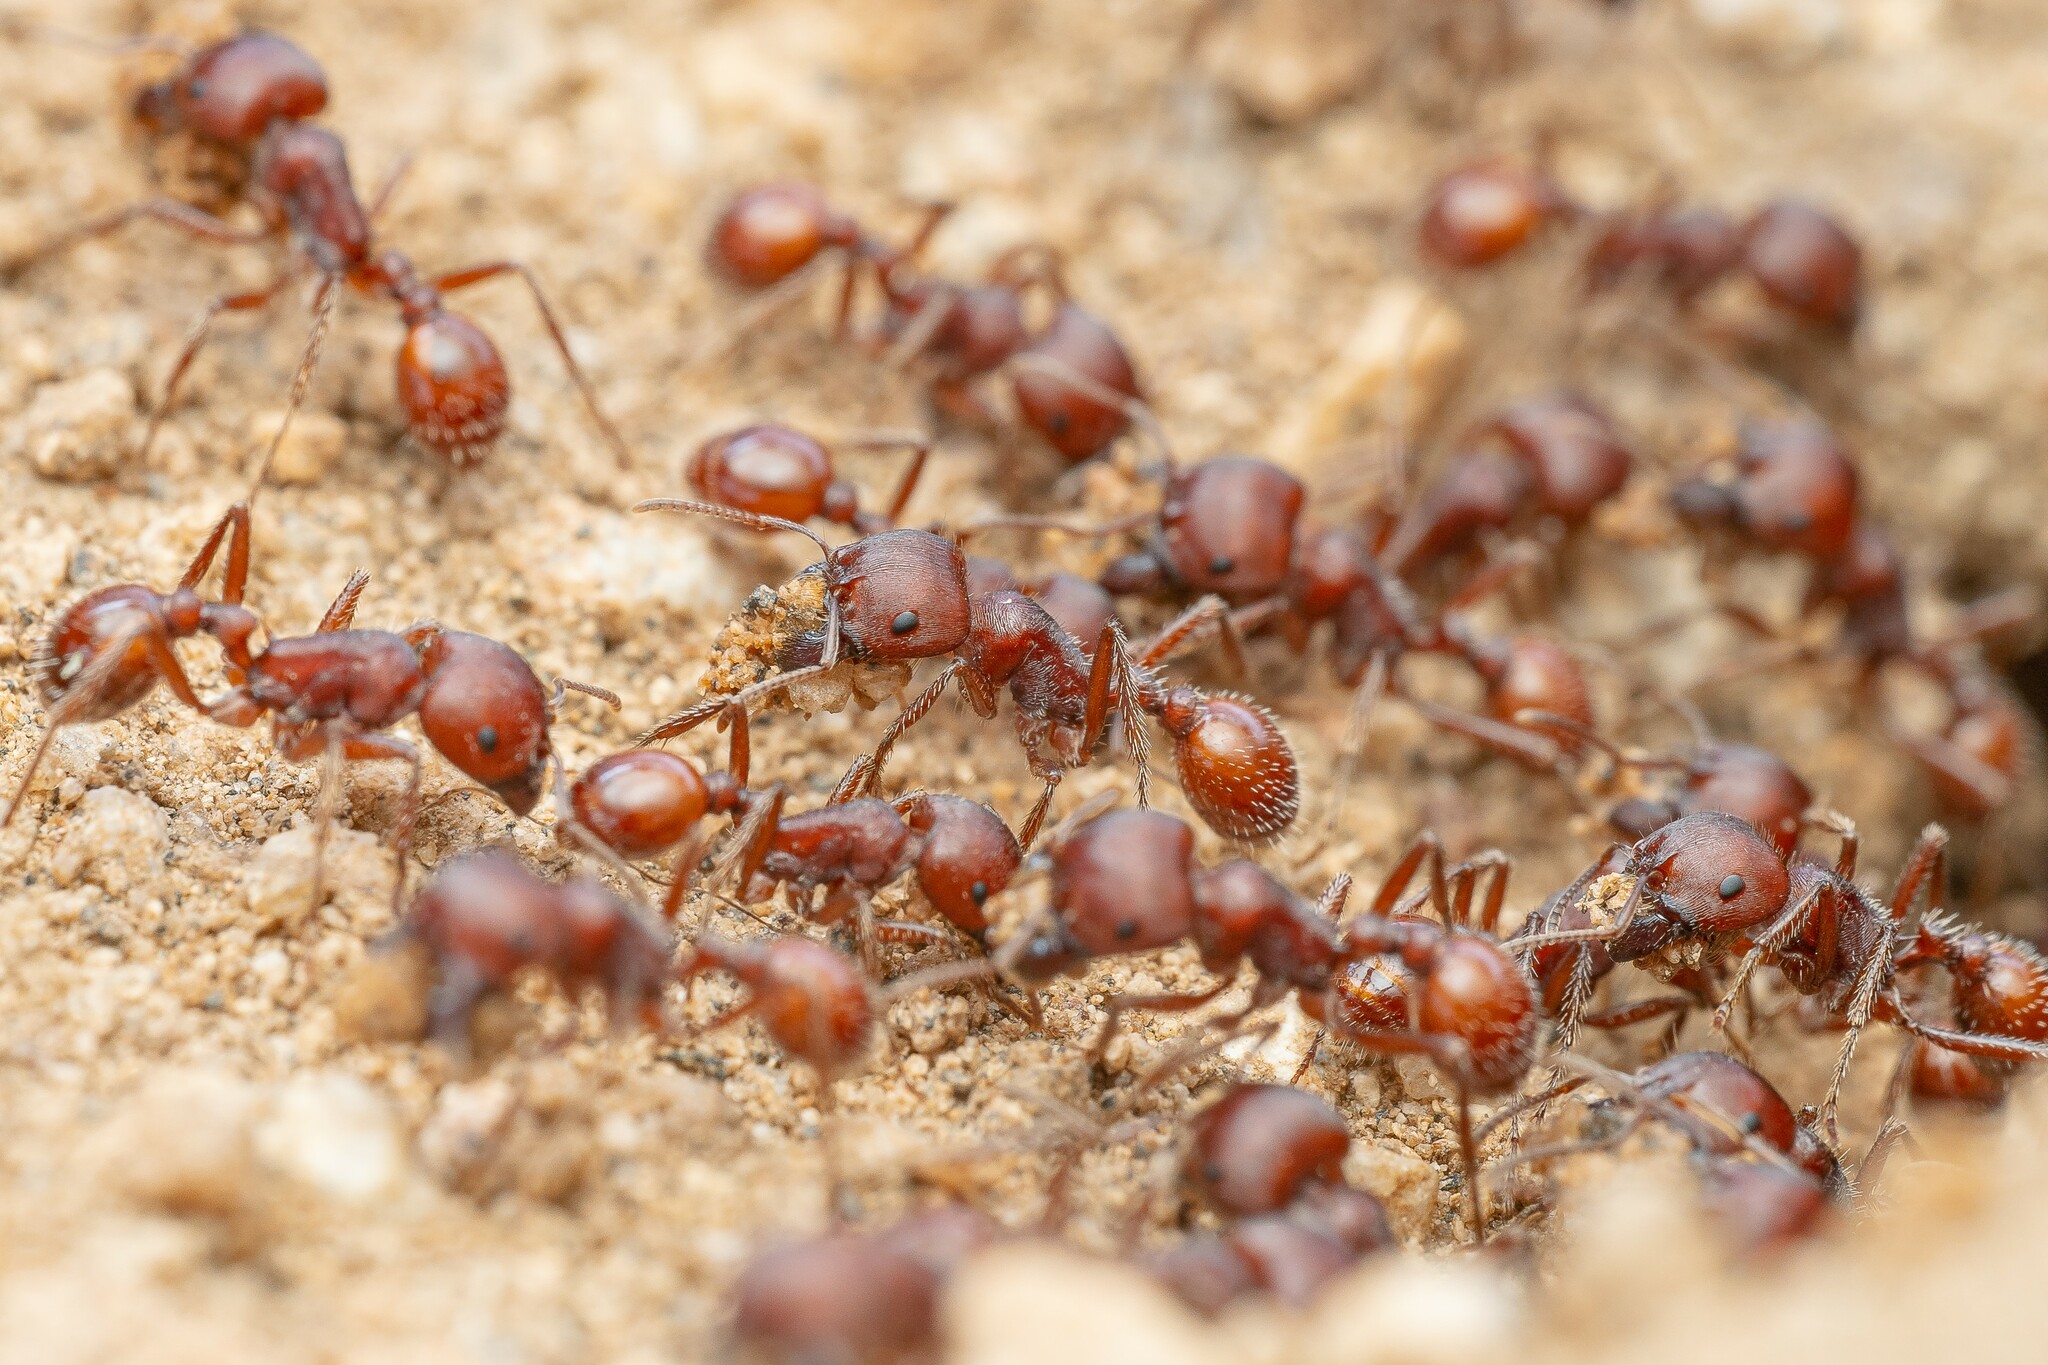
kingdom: Animalia
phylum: Arthropoda
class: Insecta
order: Hymenoptera
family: Formicidae
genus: Pogonomyrmex
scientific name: Pogonomyrmex barbatus
